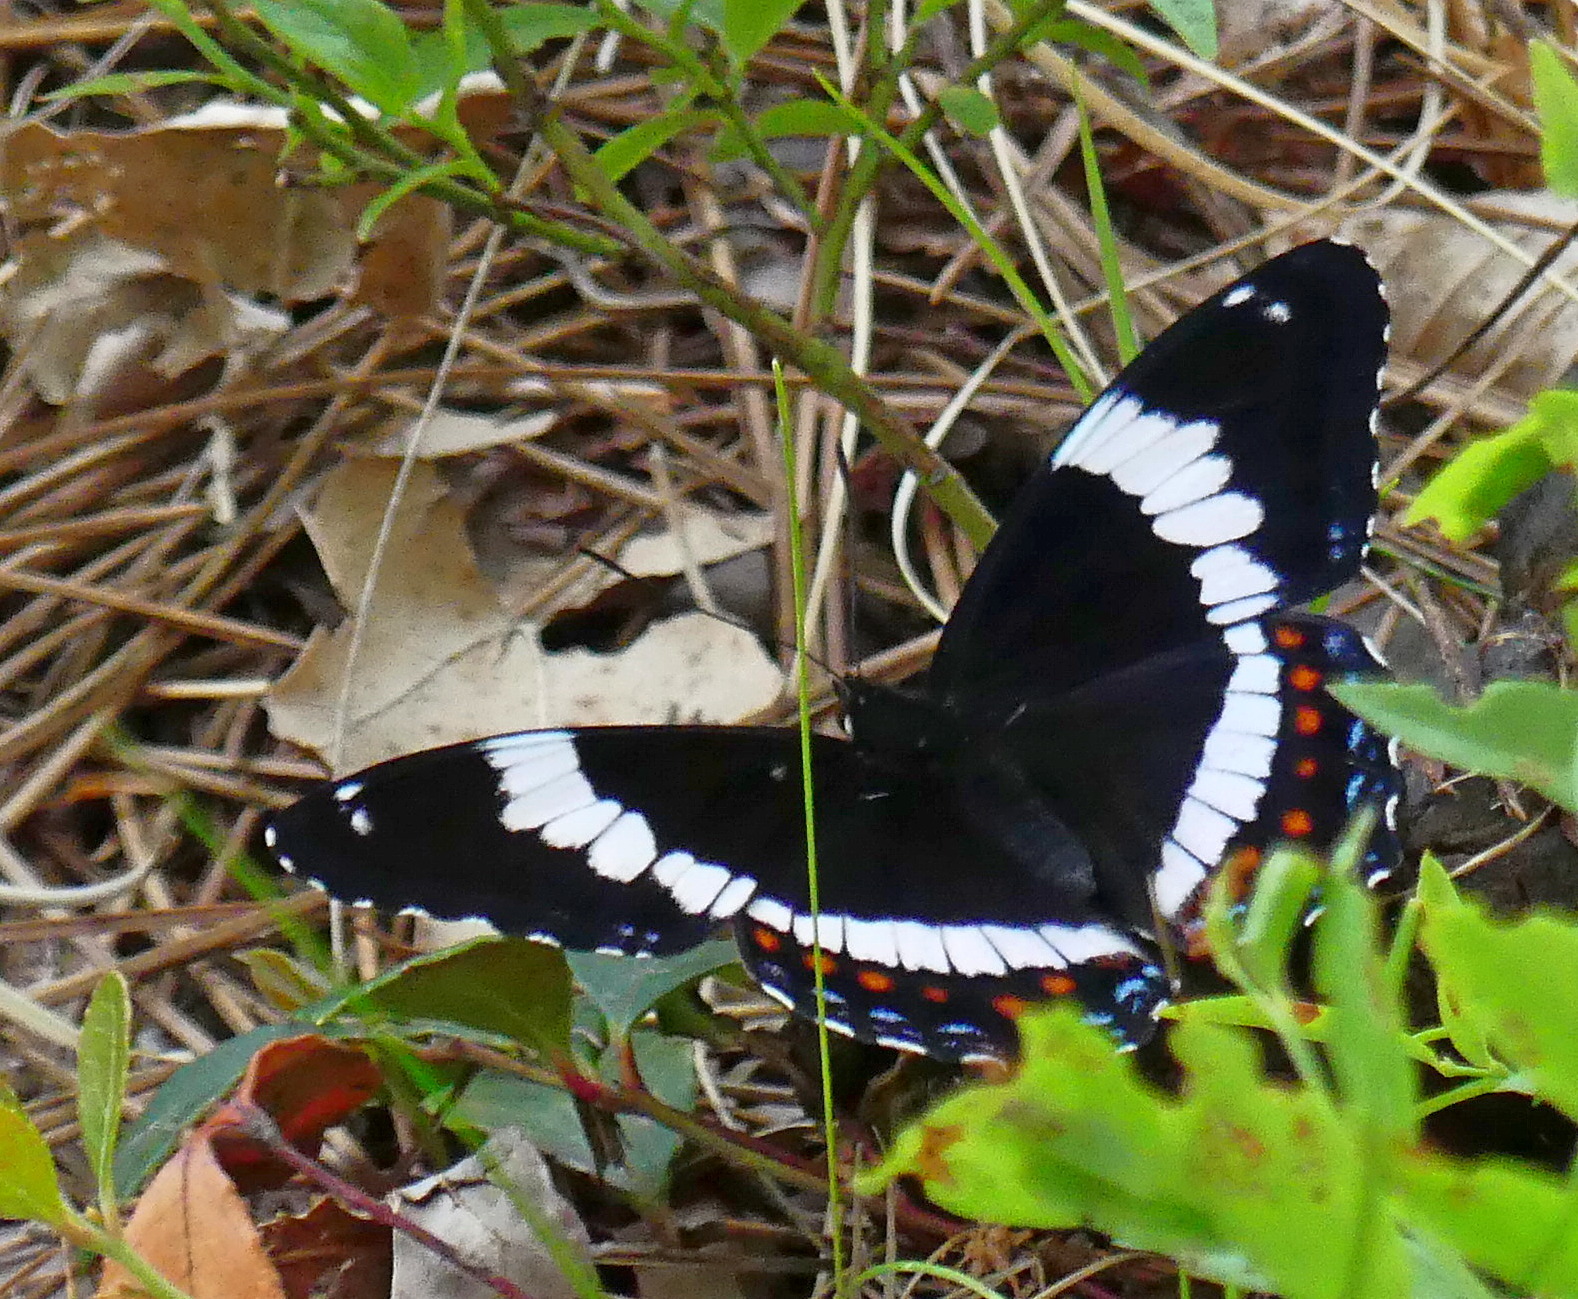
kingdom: Animalia
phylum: Arthropoda
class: Insecta
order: Lepidoptera
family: Nymphalidae
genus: Limenitis
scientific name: Limenitis arthemis
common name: Red-spotted admiral
